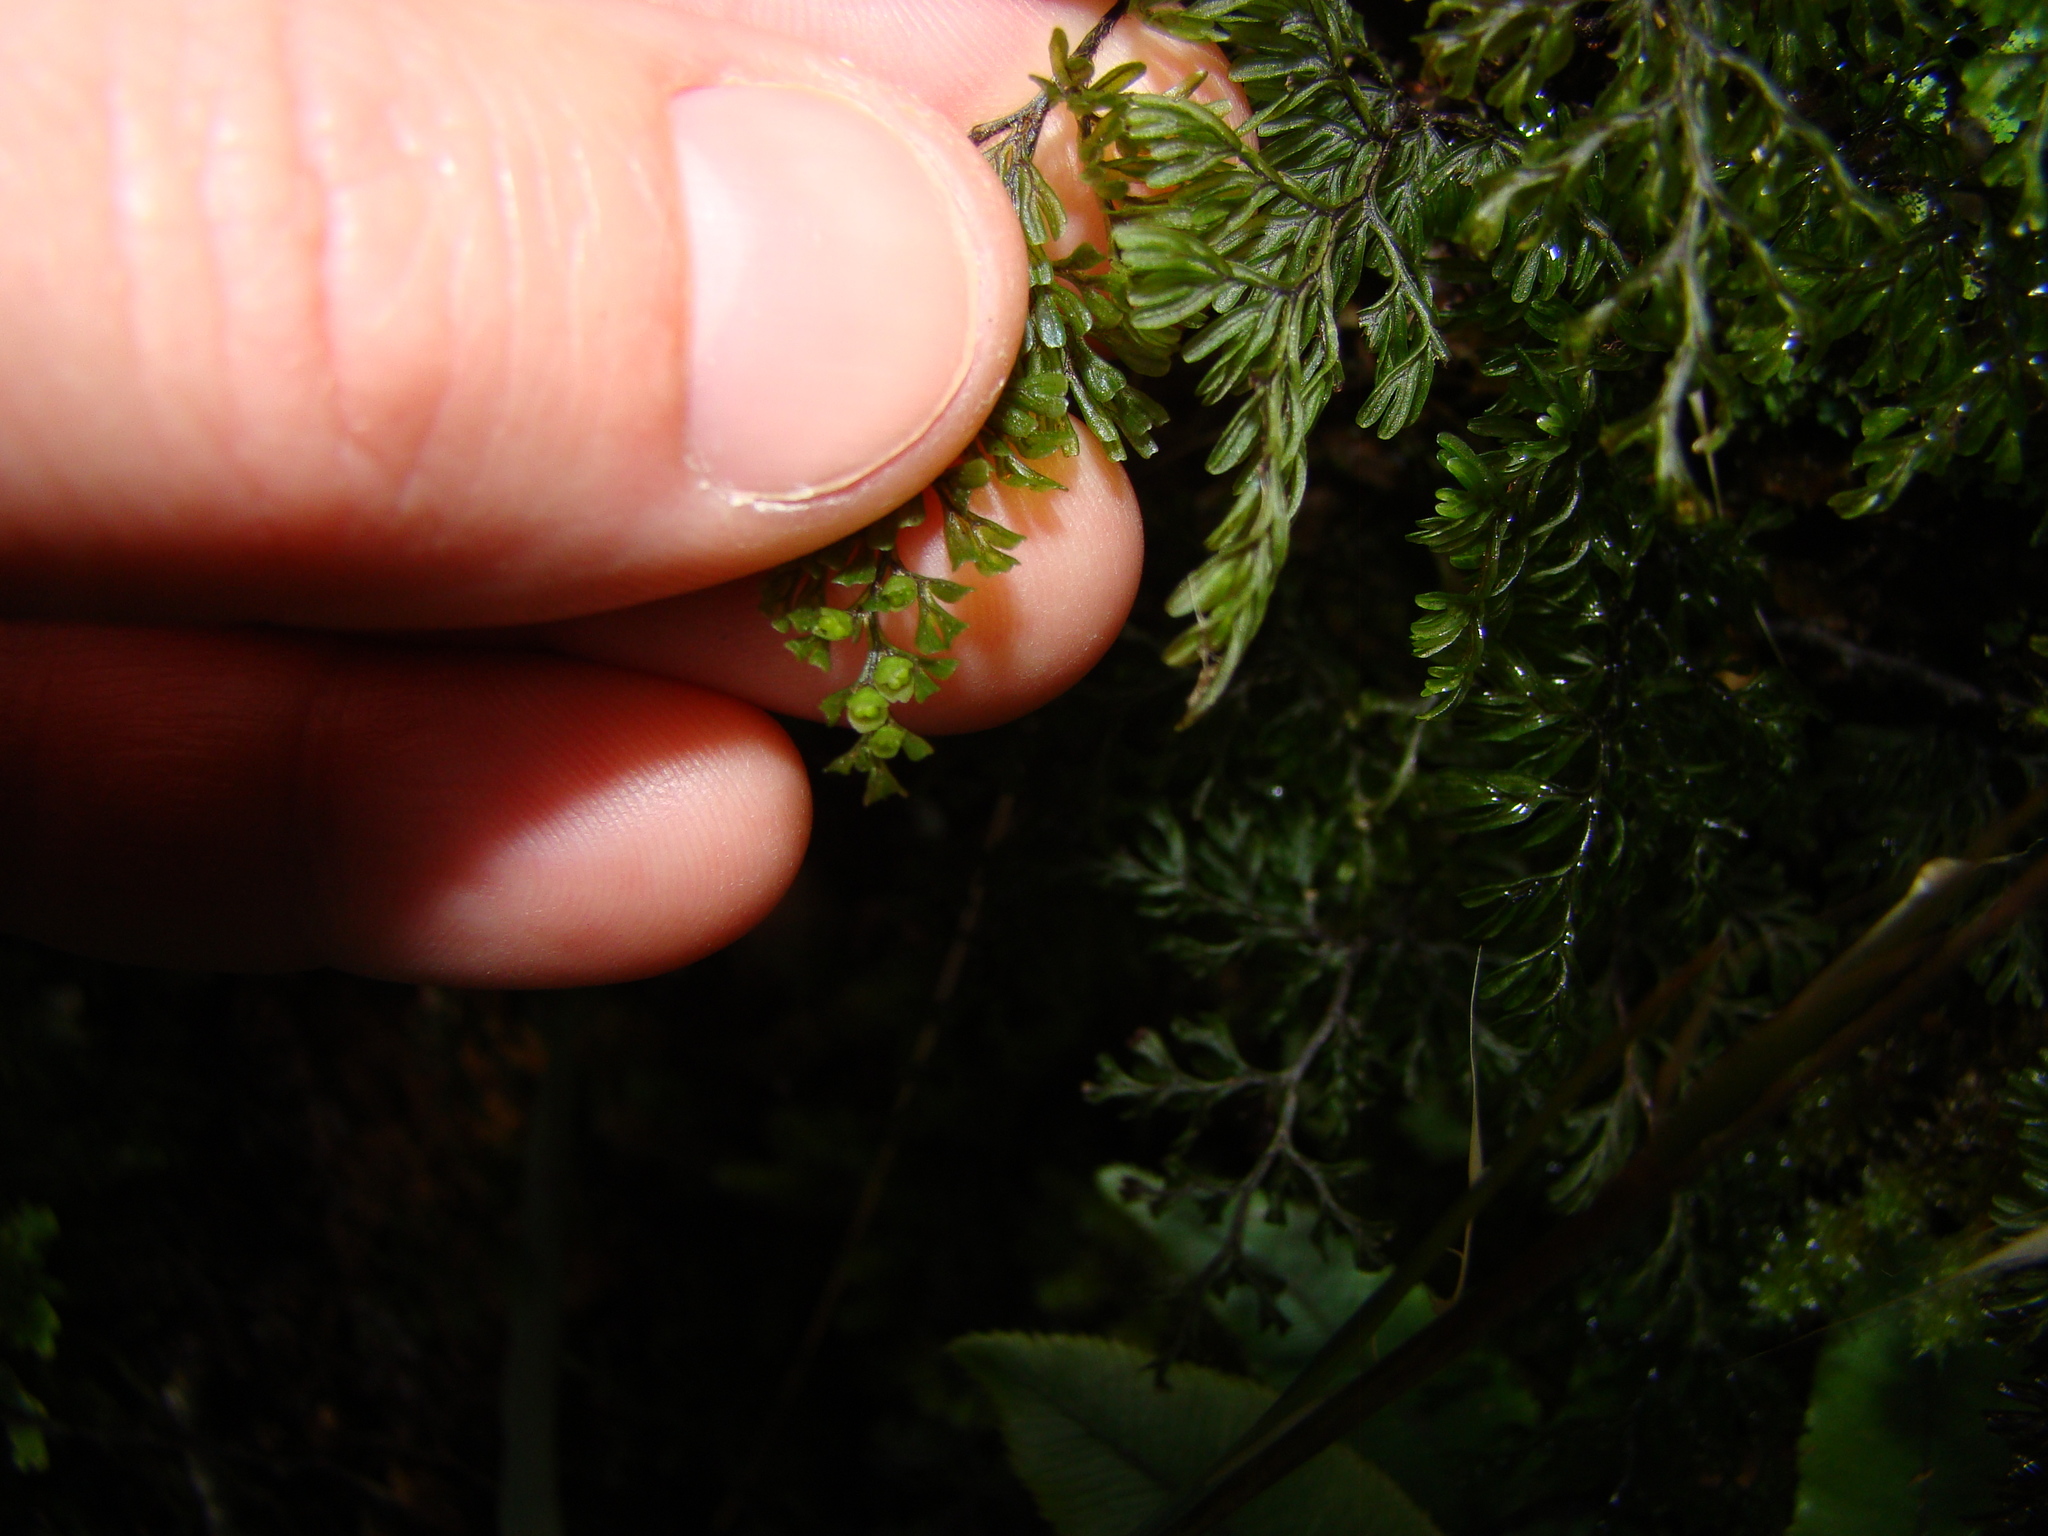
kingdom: Plantae
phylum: Tracheophyta
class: Polypodiopsida
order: Hymenophyllales
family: Hymenophyllaceae
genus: Hymenophyllum
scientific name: Hymenophyllum villosum
